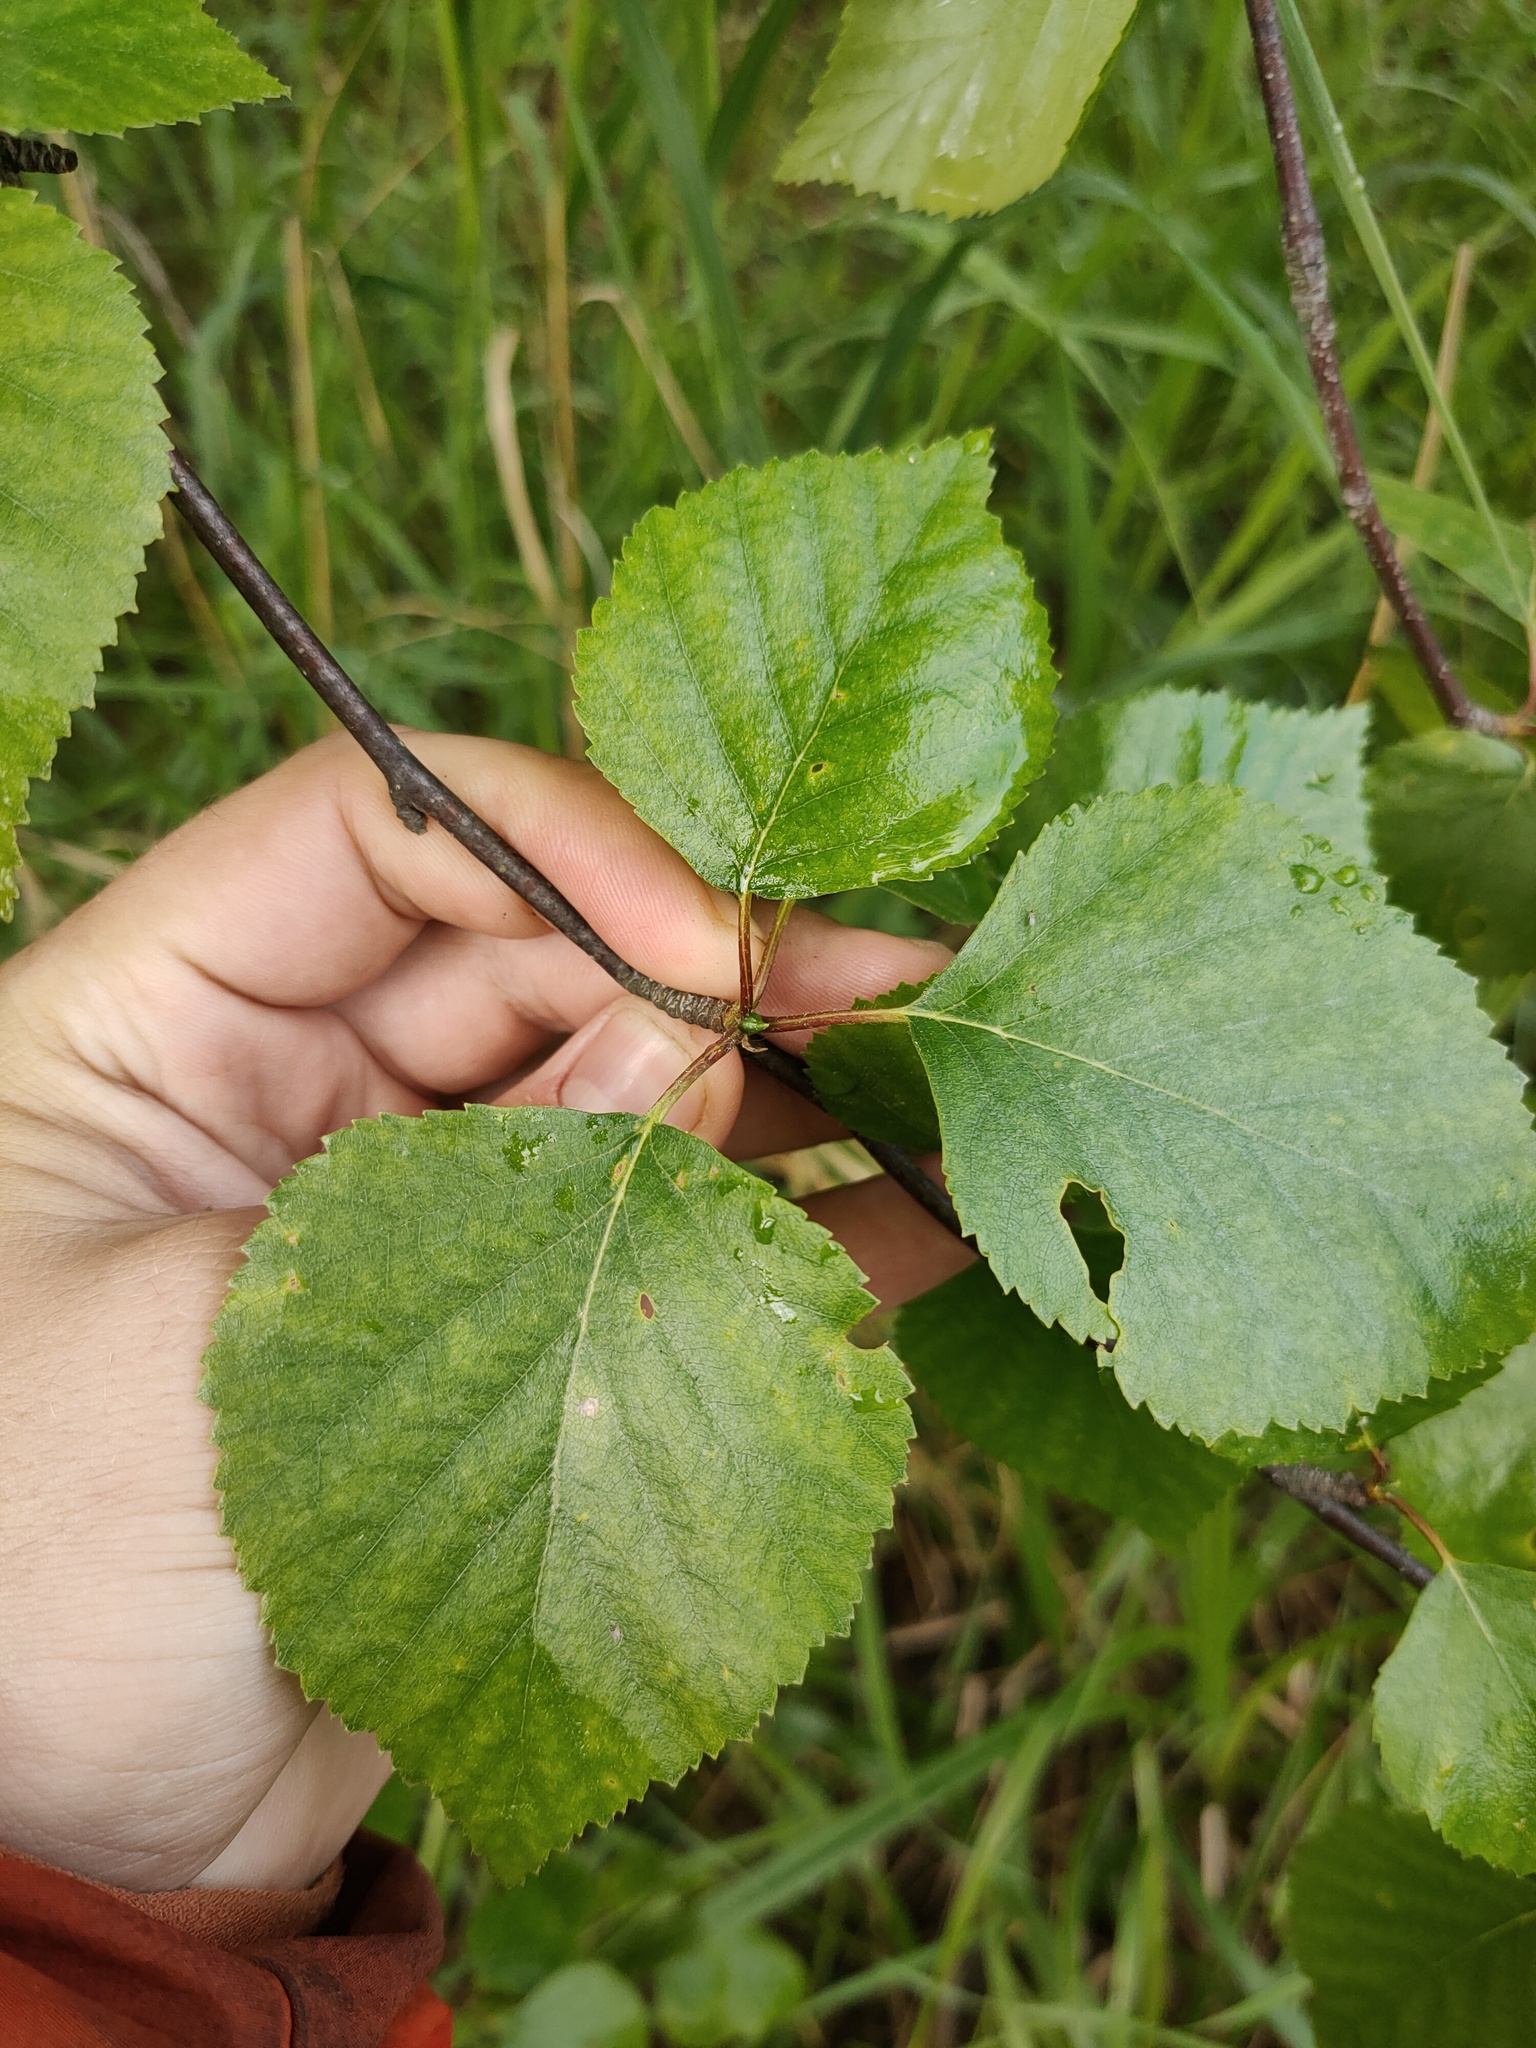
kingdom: Plantae
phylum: Tracheophyta
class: Magnoliopsida
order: Fagales
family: Betulaceae
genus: Betula
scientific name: Betula pubescens
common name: Downy birch
